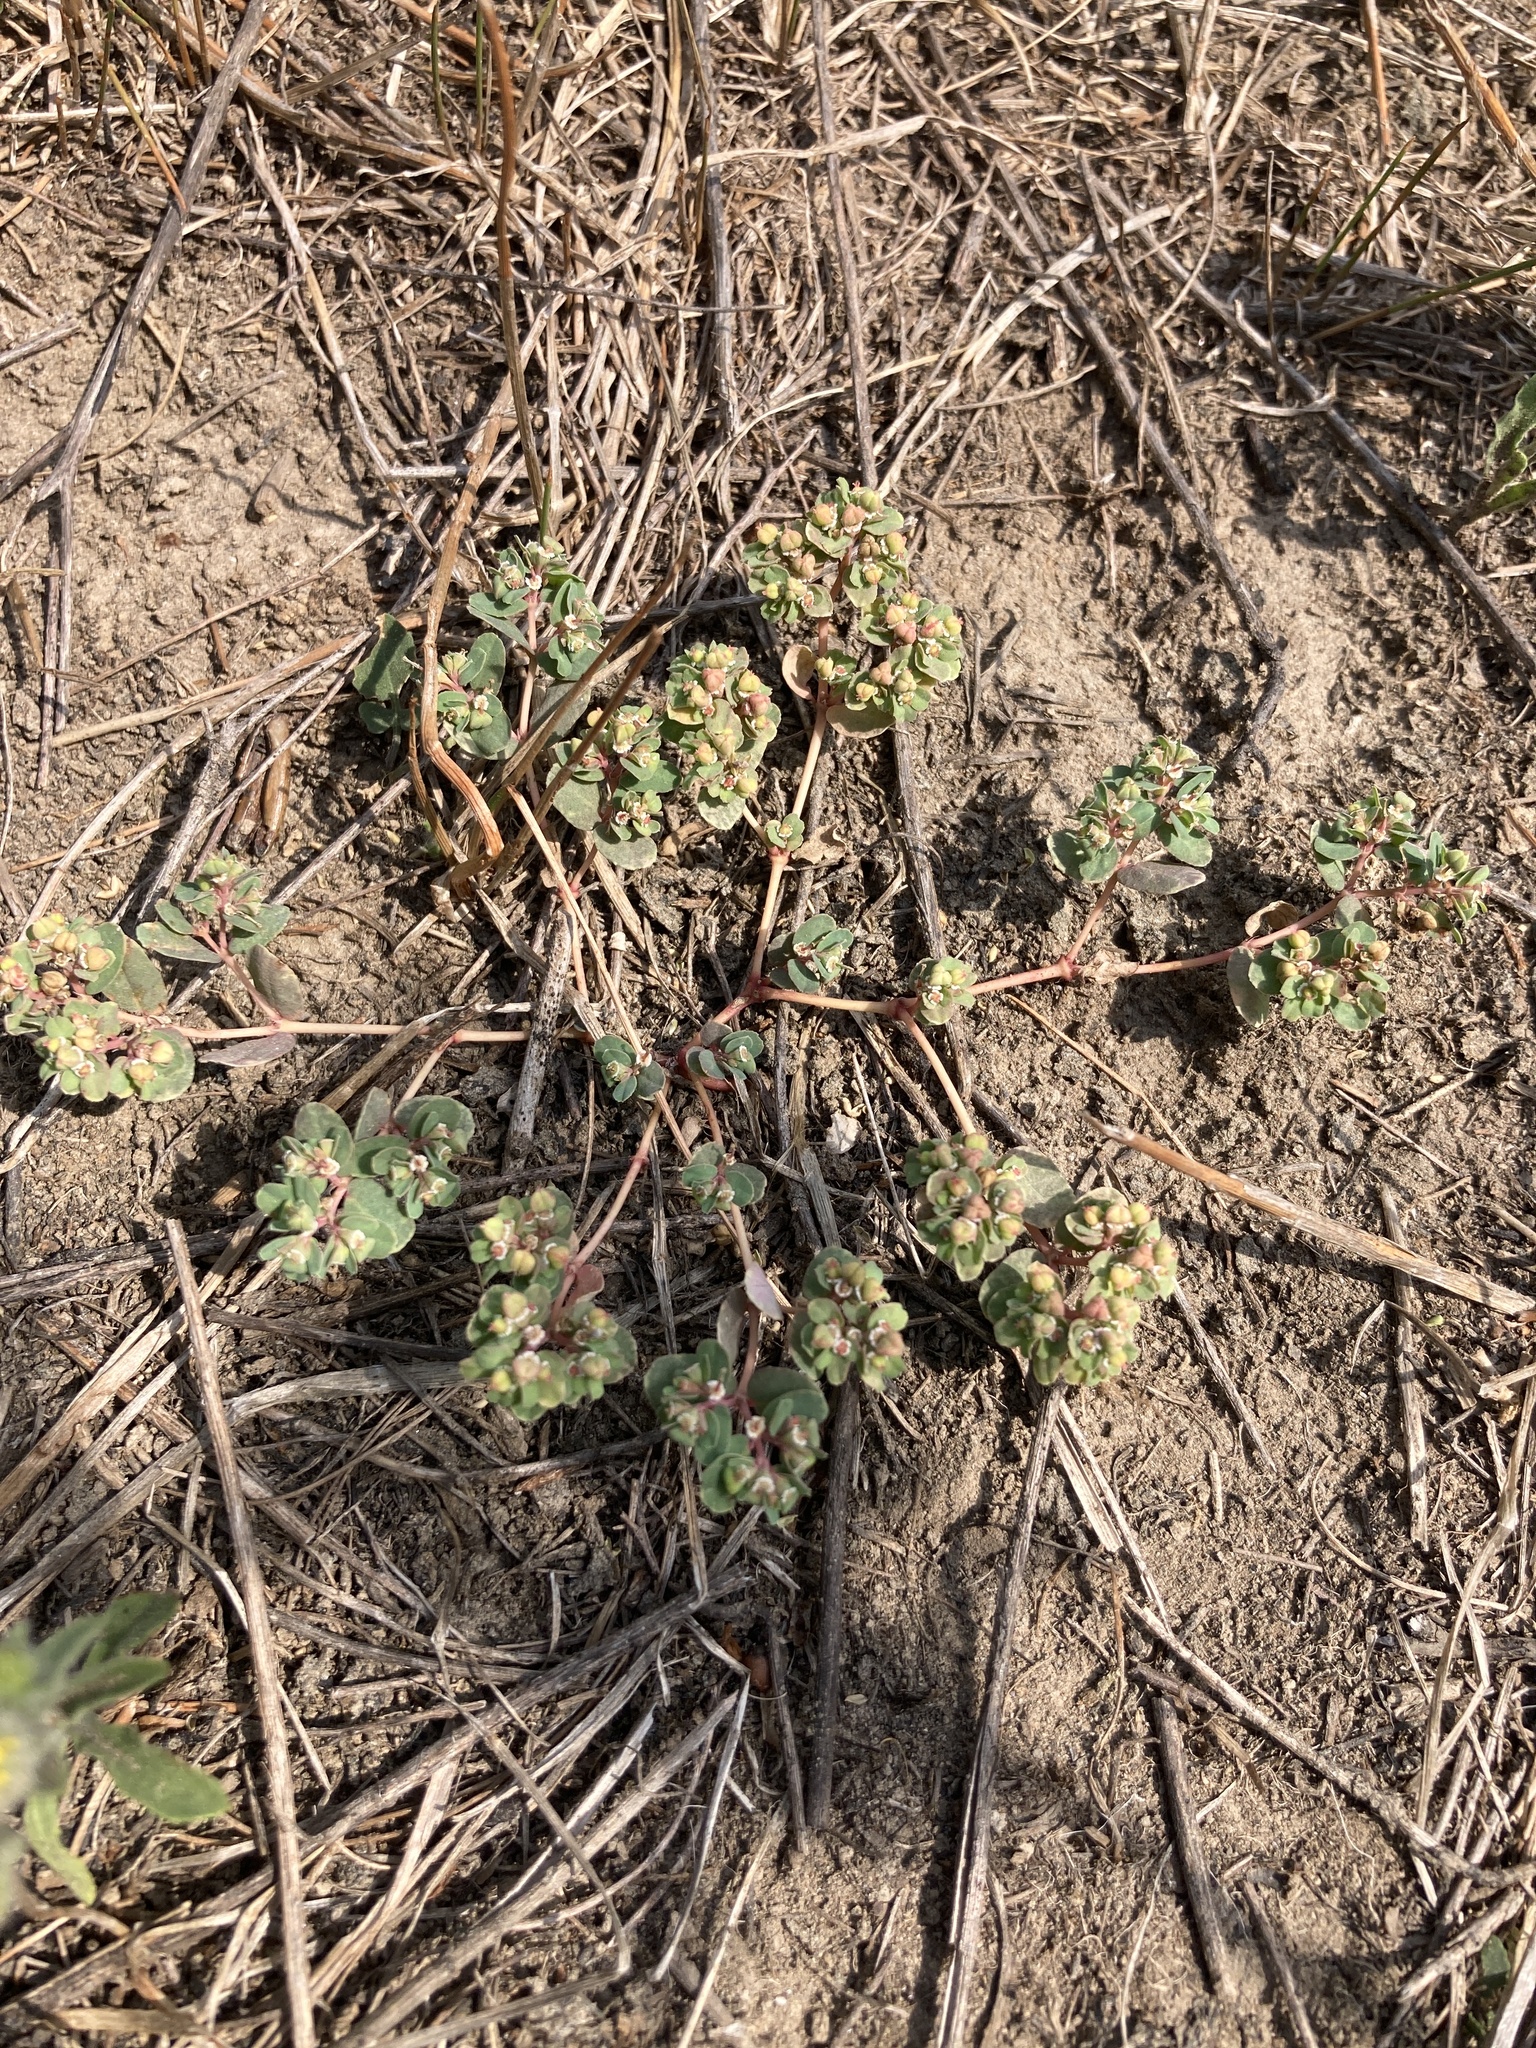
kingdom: Plantae
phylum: Tracheophyta
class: Magnoliopsida
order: Malpighiales
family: Euphorbiaceae
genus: Euphorbia
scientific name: Euphorbia chamaesyce
